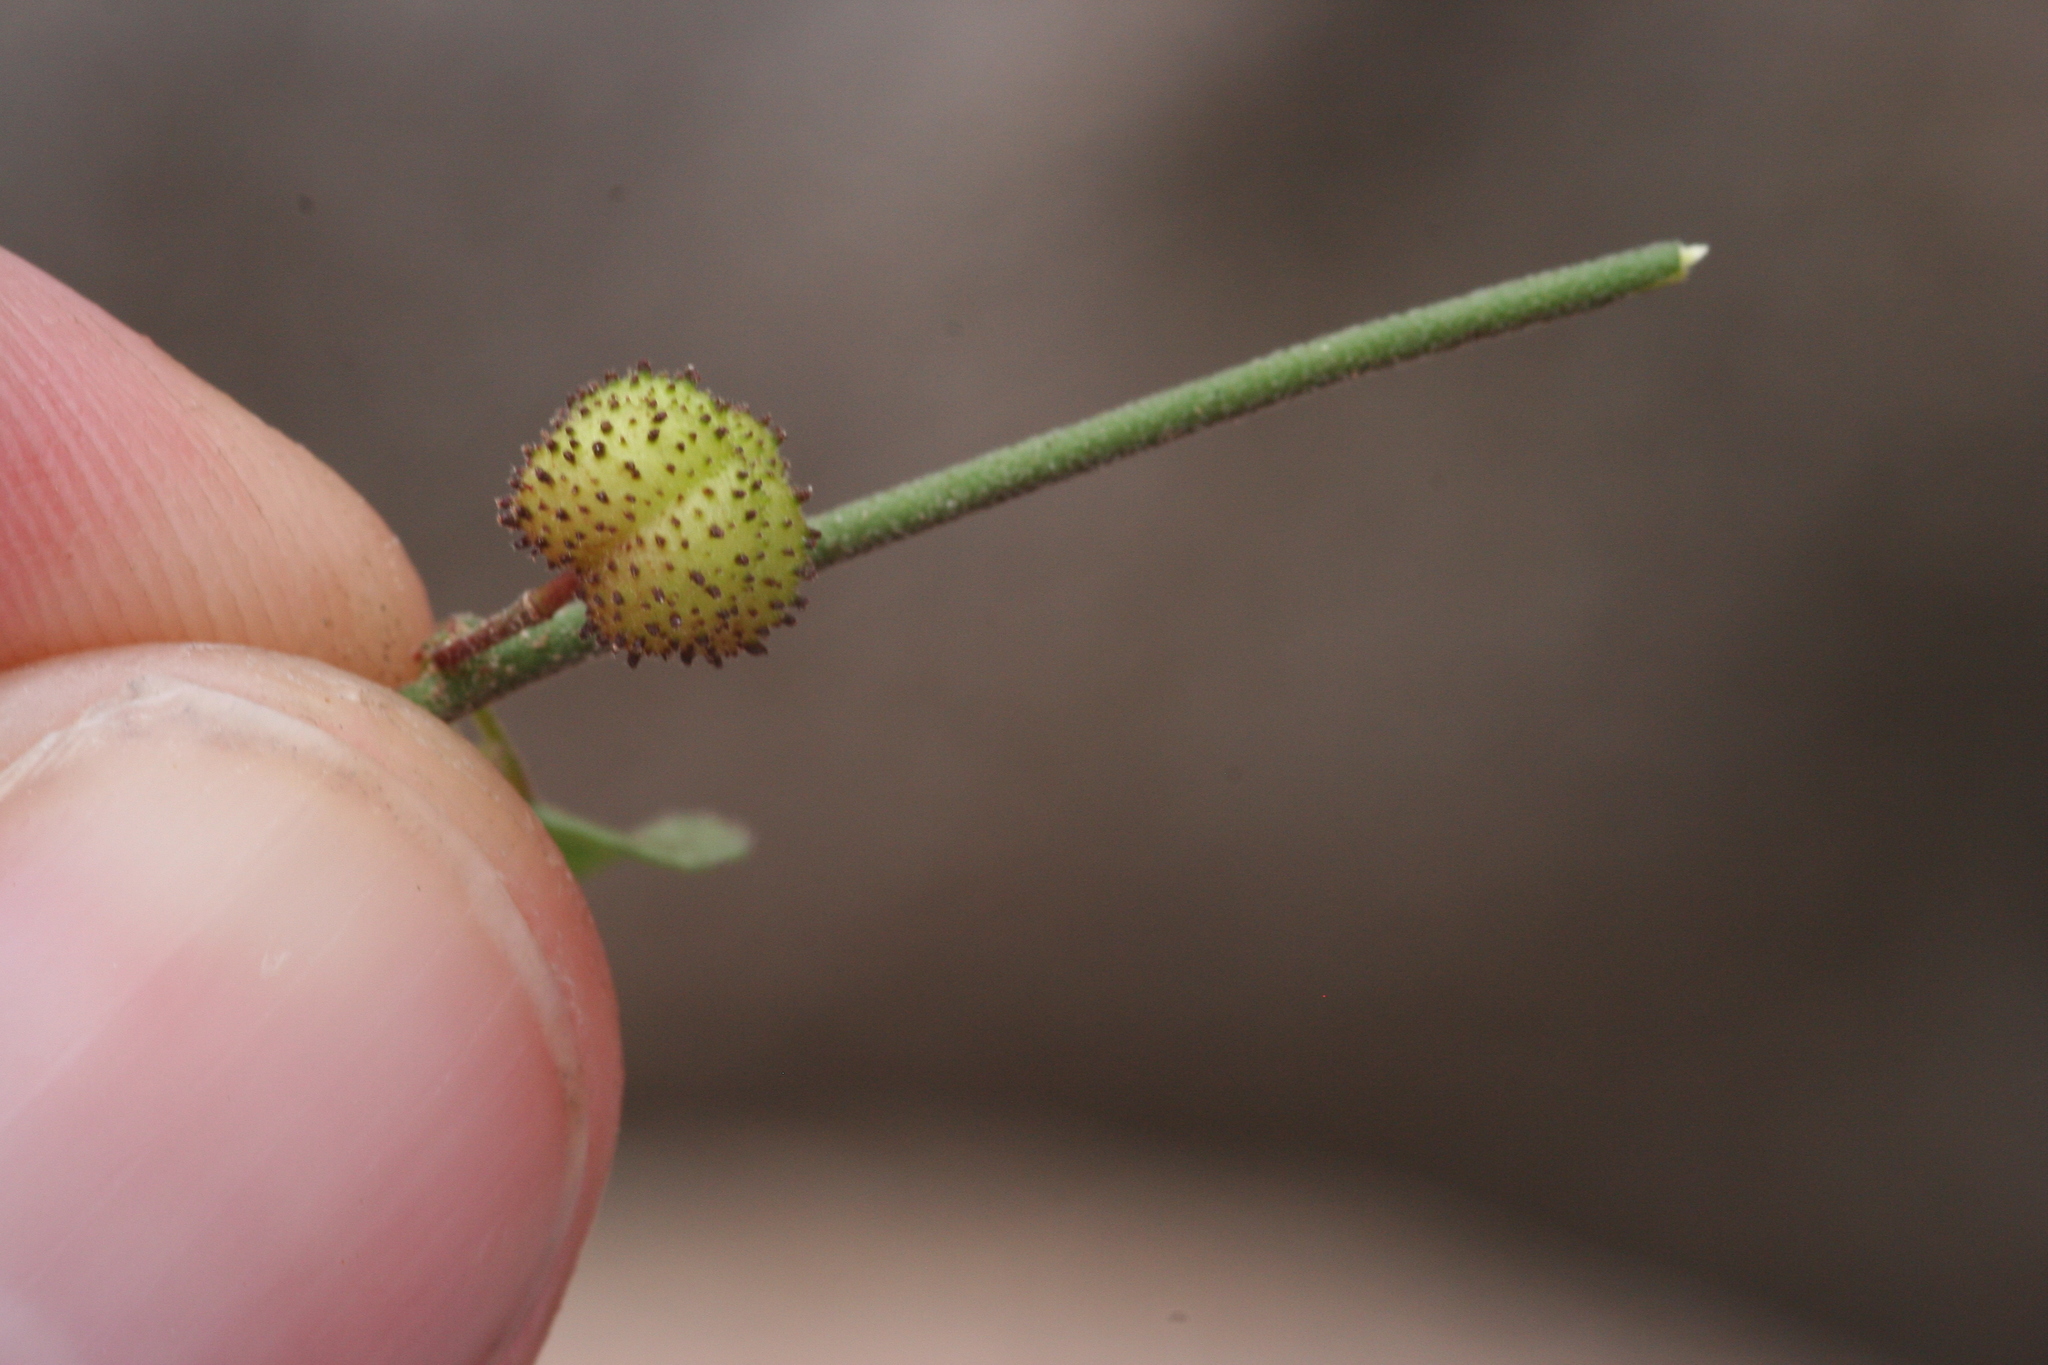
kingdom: Plantae
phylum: Tracheophyta
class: Magnoliopsida
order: Malvales
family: Malvaceae
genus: Ayenia
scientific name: Ayenia compacta
